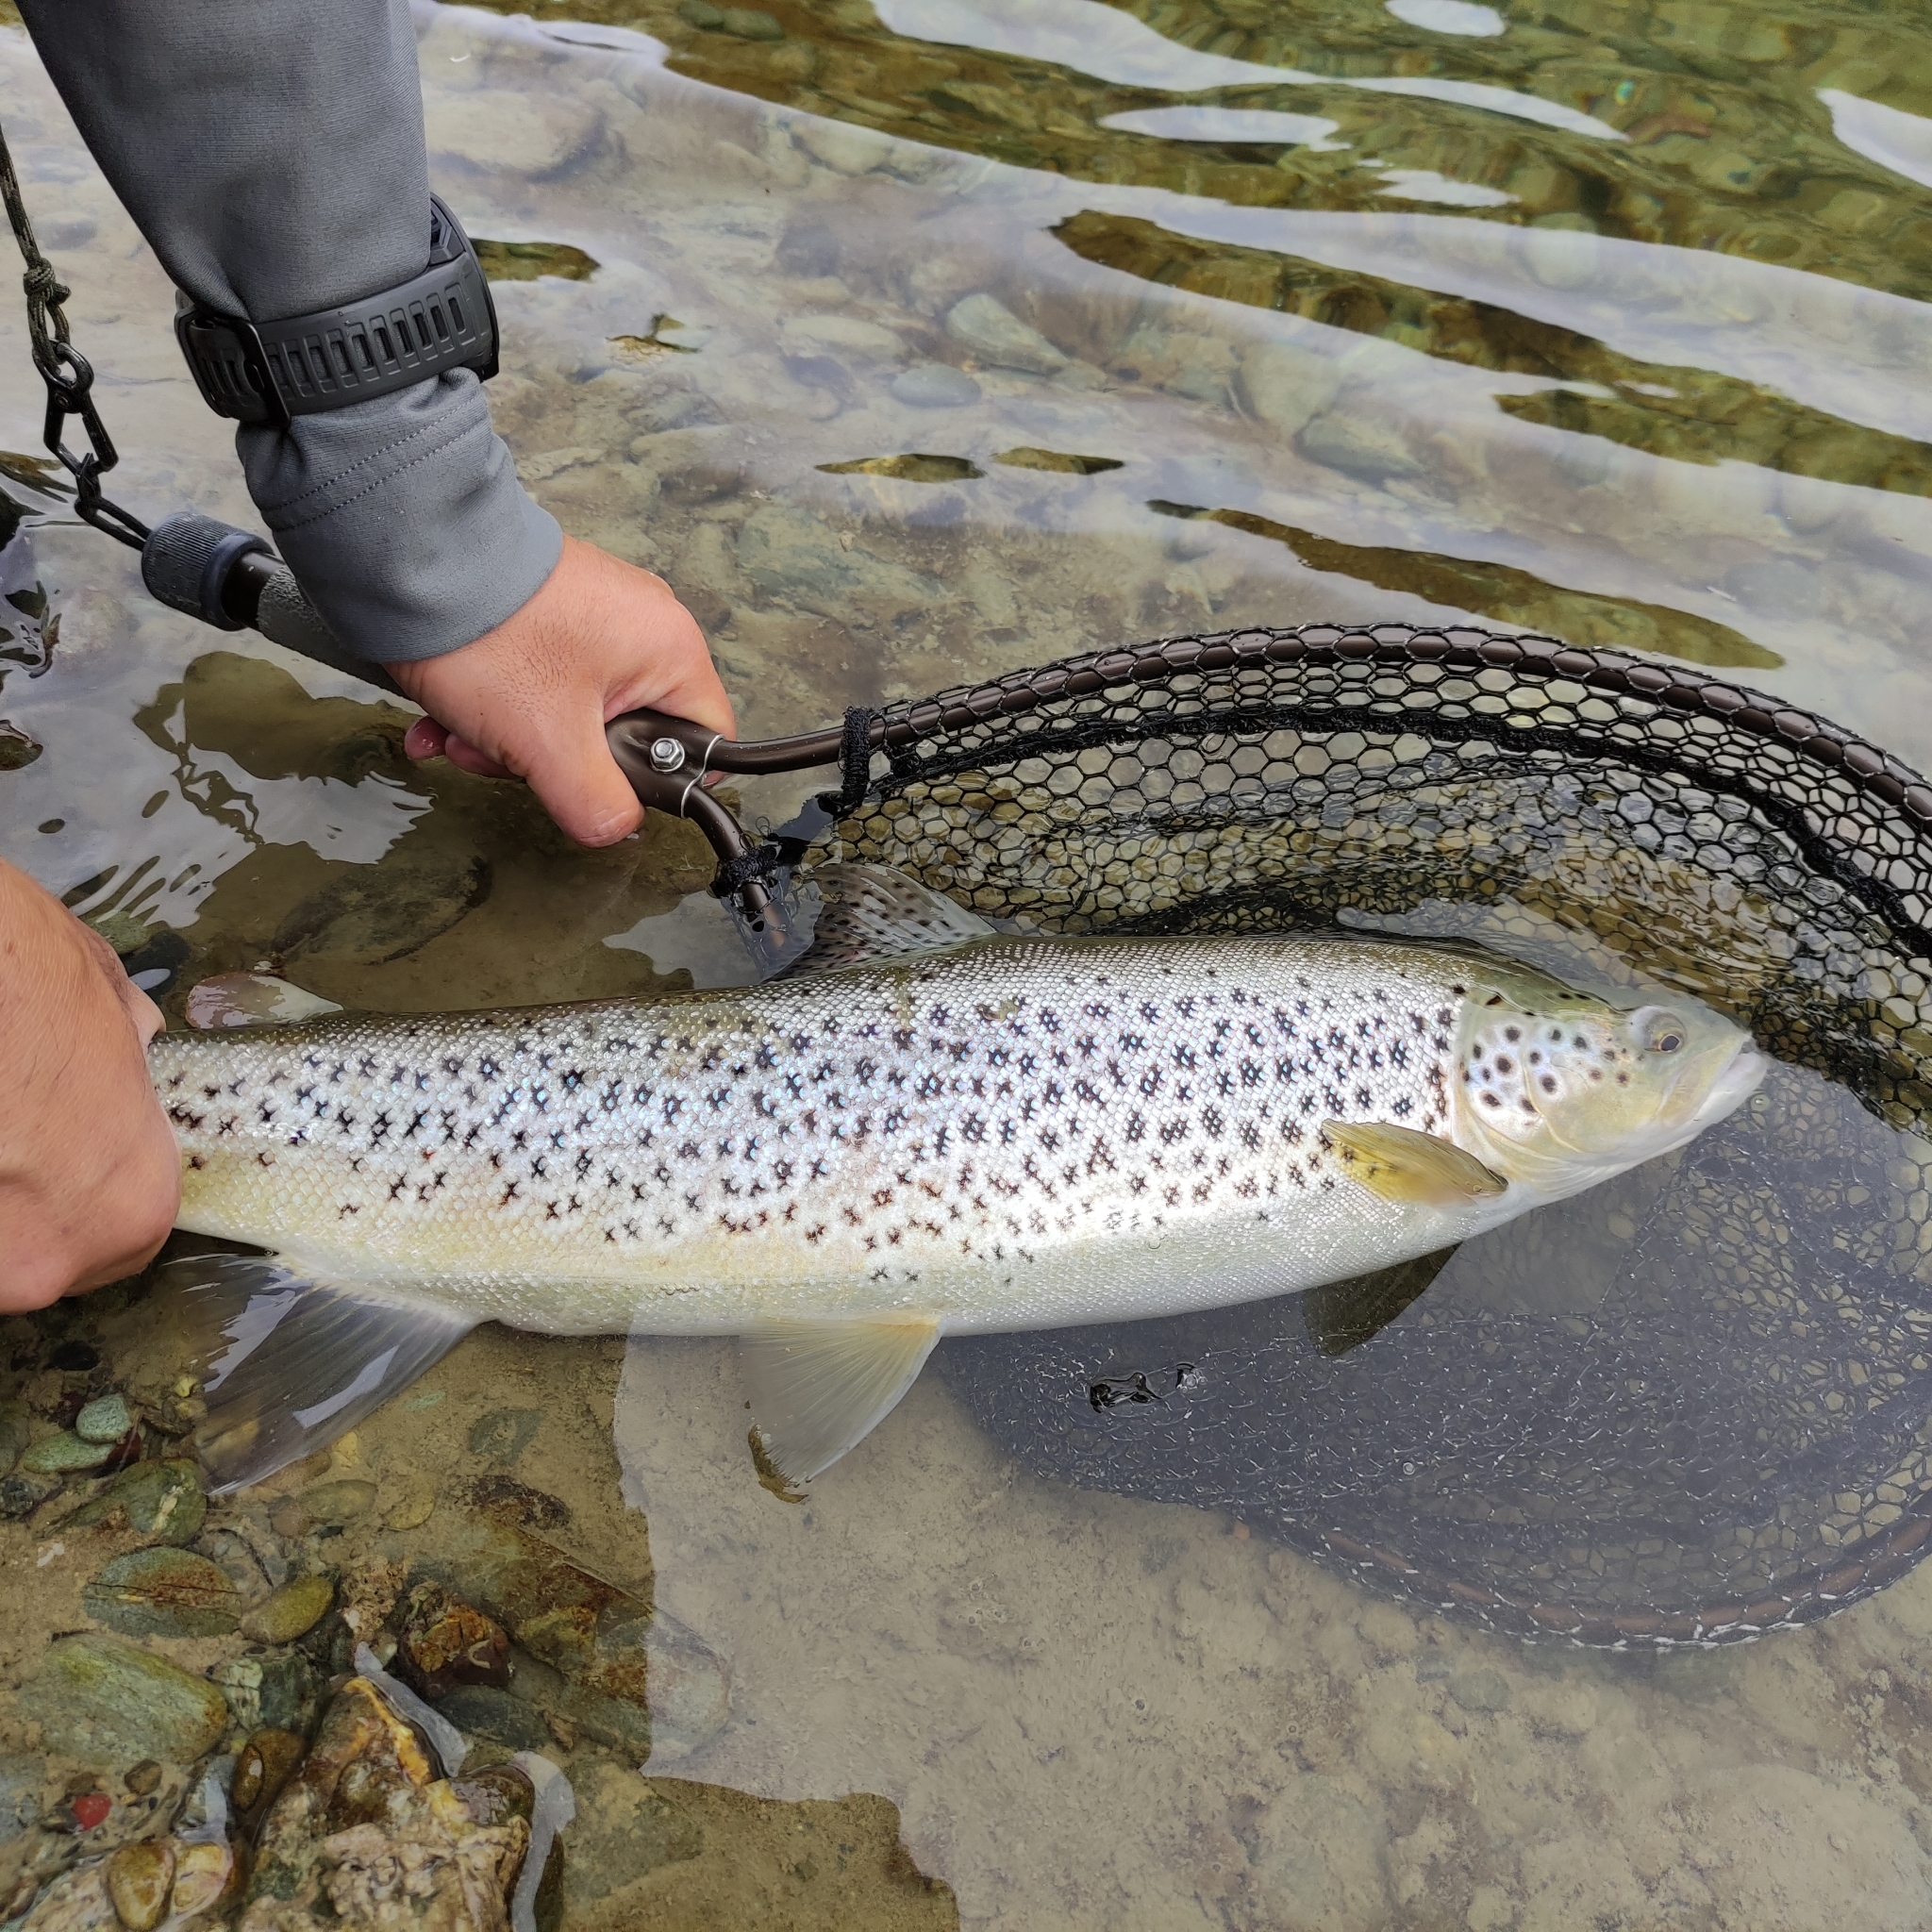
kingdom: Animalia
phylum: Chordata
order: Salmoniformes
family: Salmonidae
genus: Salmo
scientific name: Salmo trutta
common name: Brown trout
